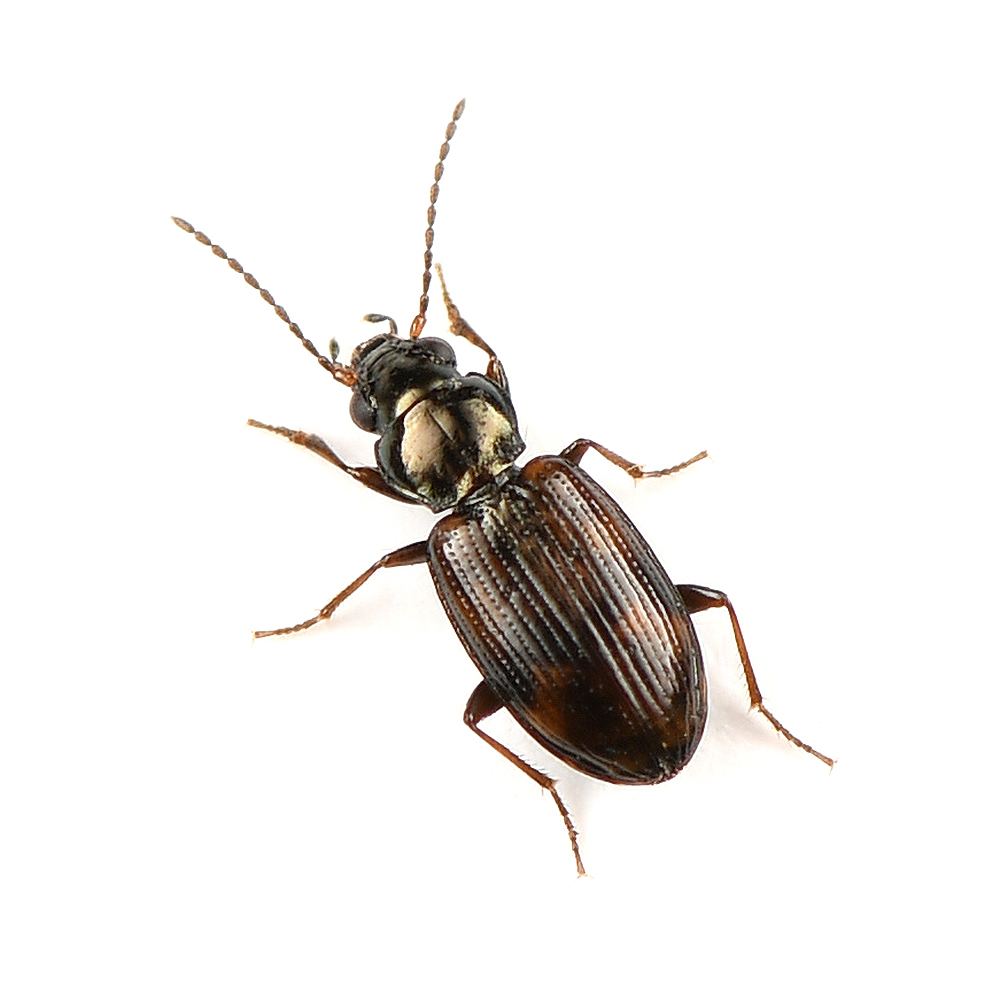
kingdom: Animalia
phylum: Arthropoda
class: Insecta
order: Coleoptera
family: Carabidae
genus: Bembidion
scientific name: Bembidion timidum
